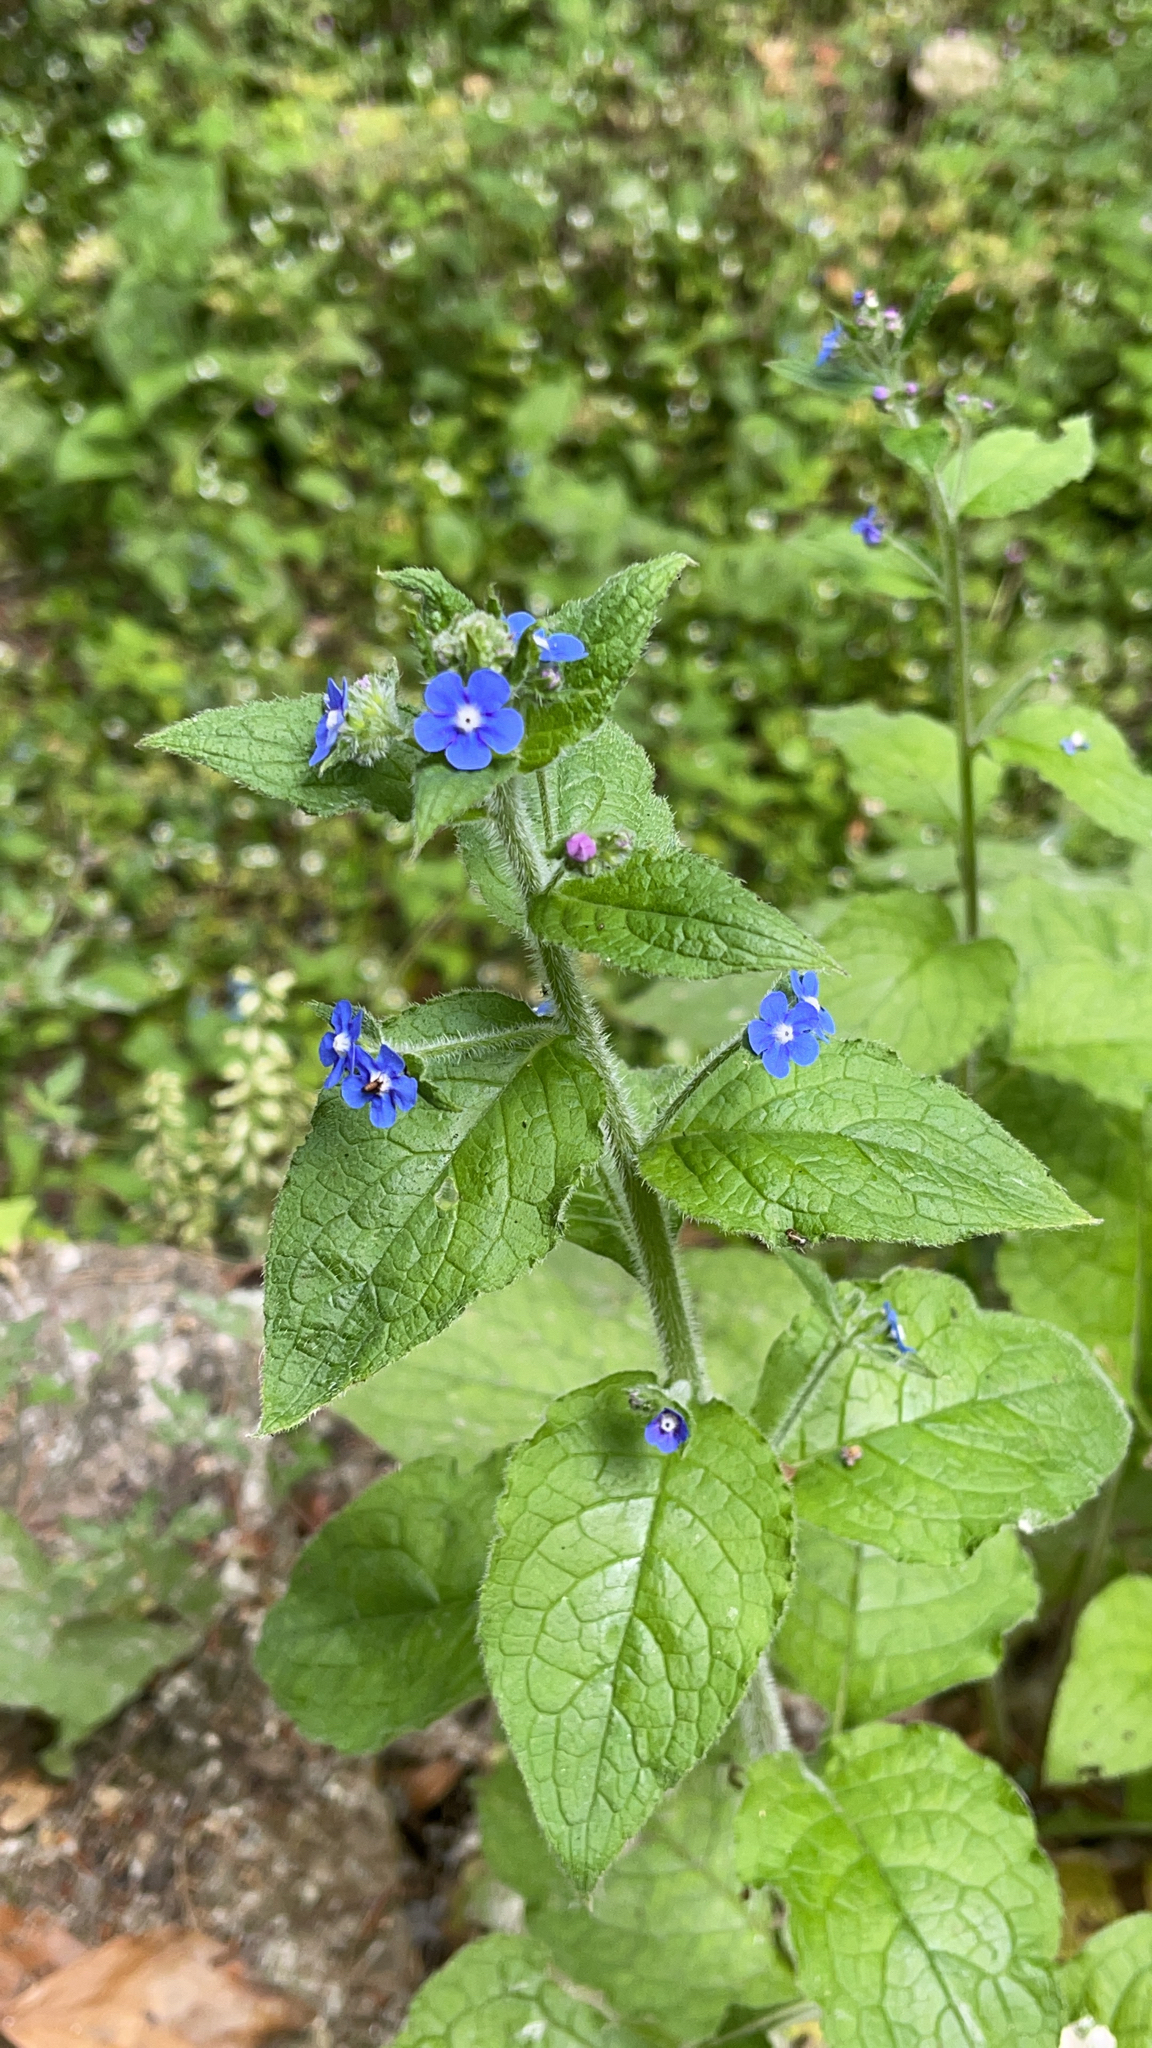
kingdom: Plantae
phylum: Tracheophyta
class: Magnoliopsida
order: Boraginales
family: Boraginaceae
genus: Pentaglottis
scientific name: Pentaglottis sempervirens
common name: Green alkanet
